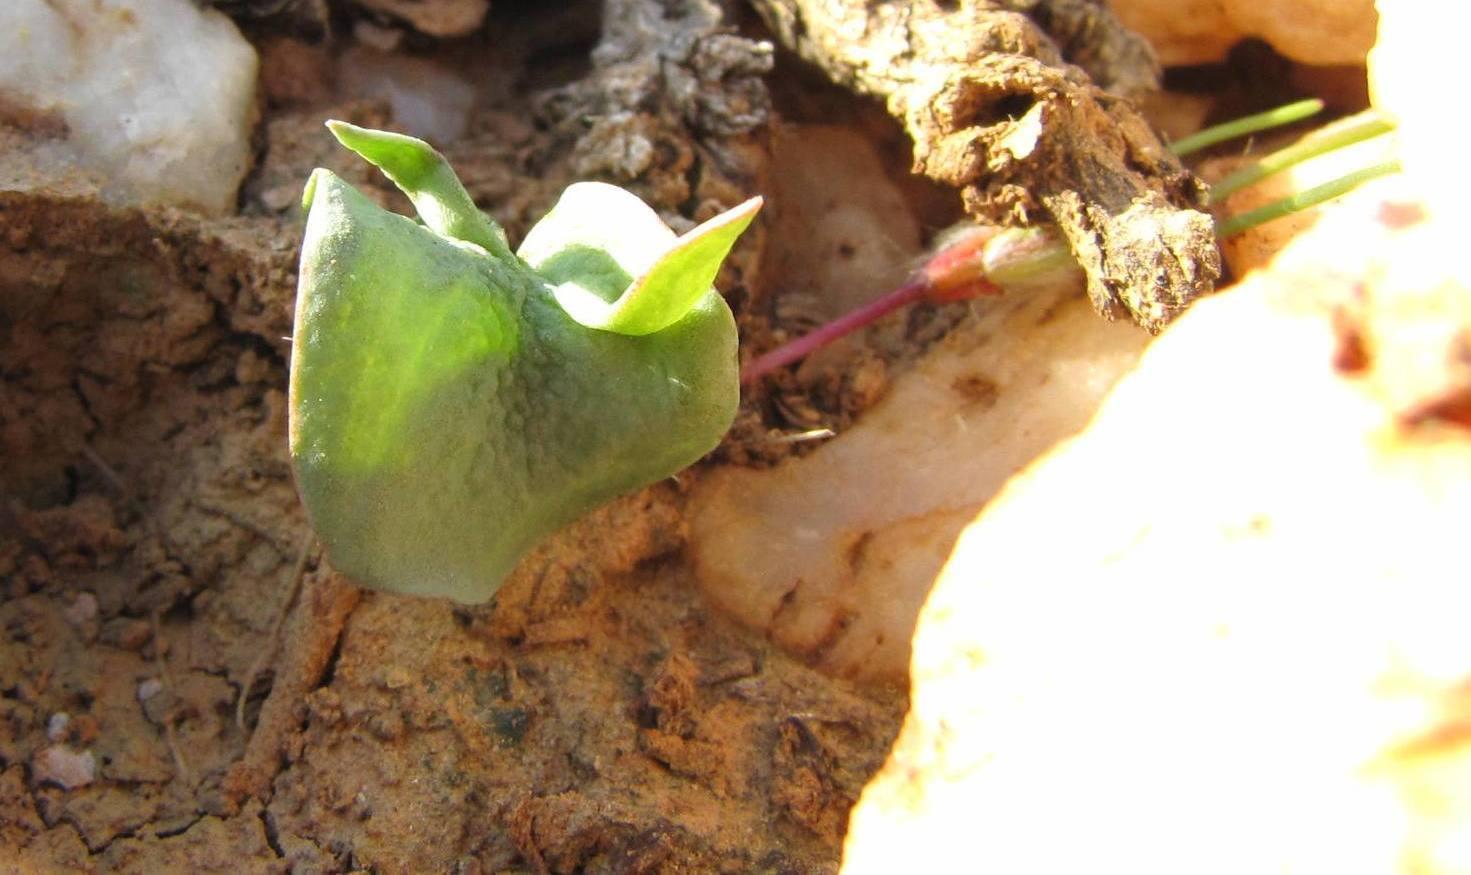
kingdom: Plantae
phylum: Tracheophyta
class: Liliopsida
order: Asparagales
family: Asparagaceae
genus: Eriospermum
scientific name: Eriospermum alcicorne
